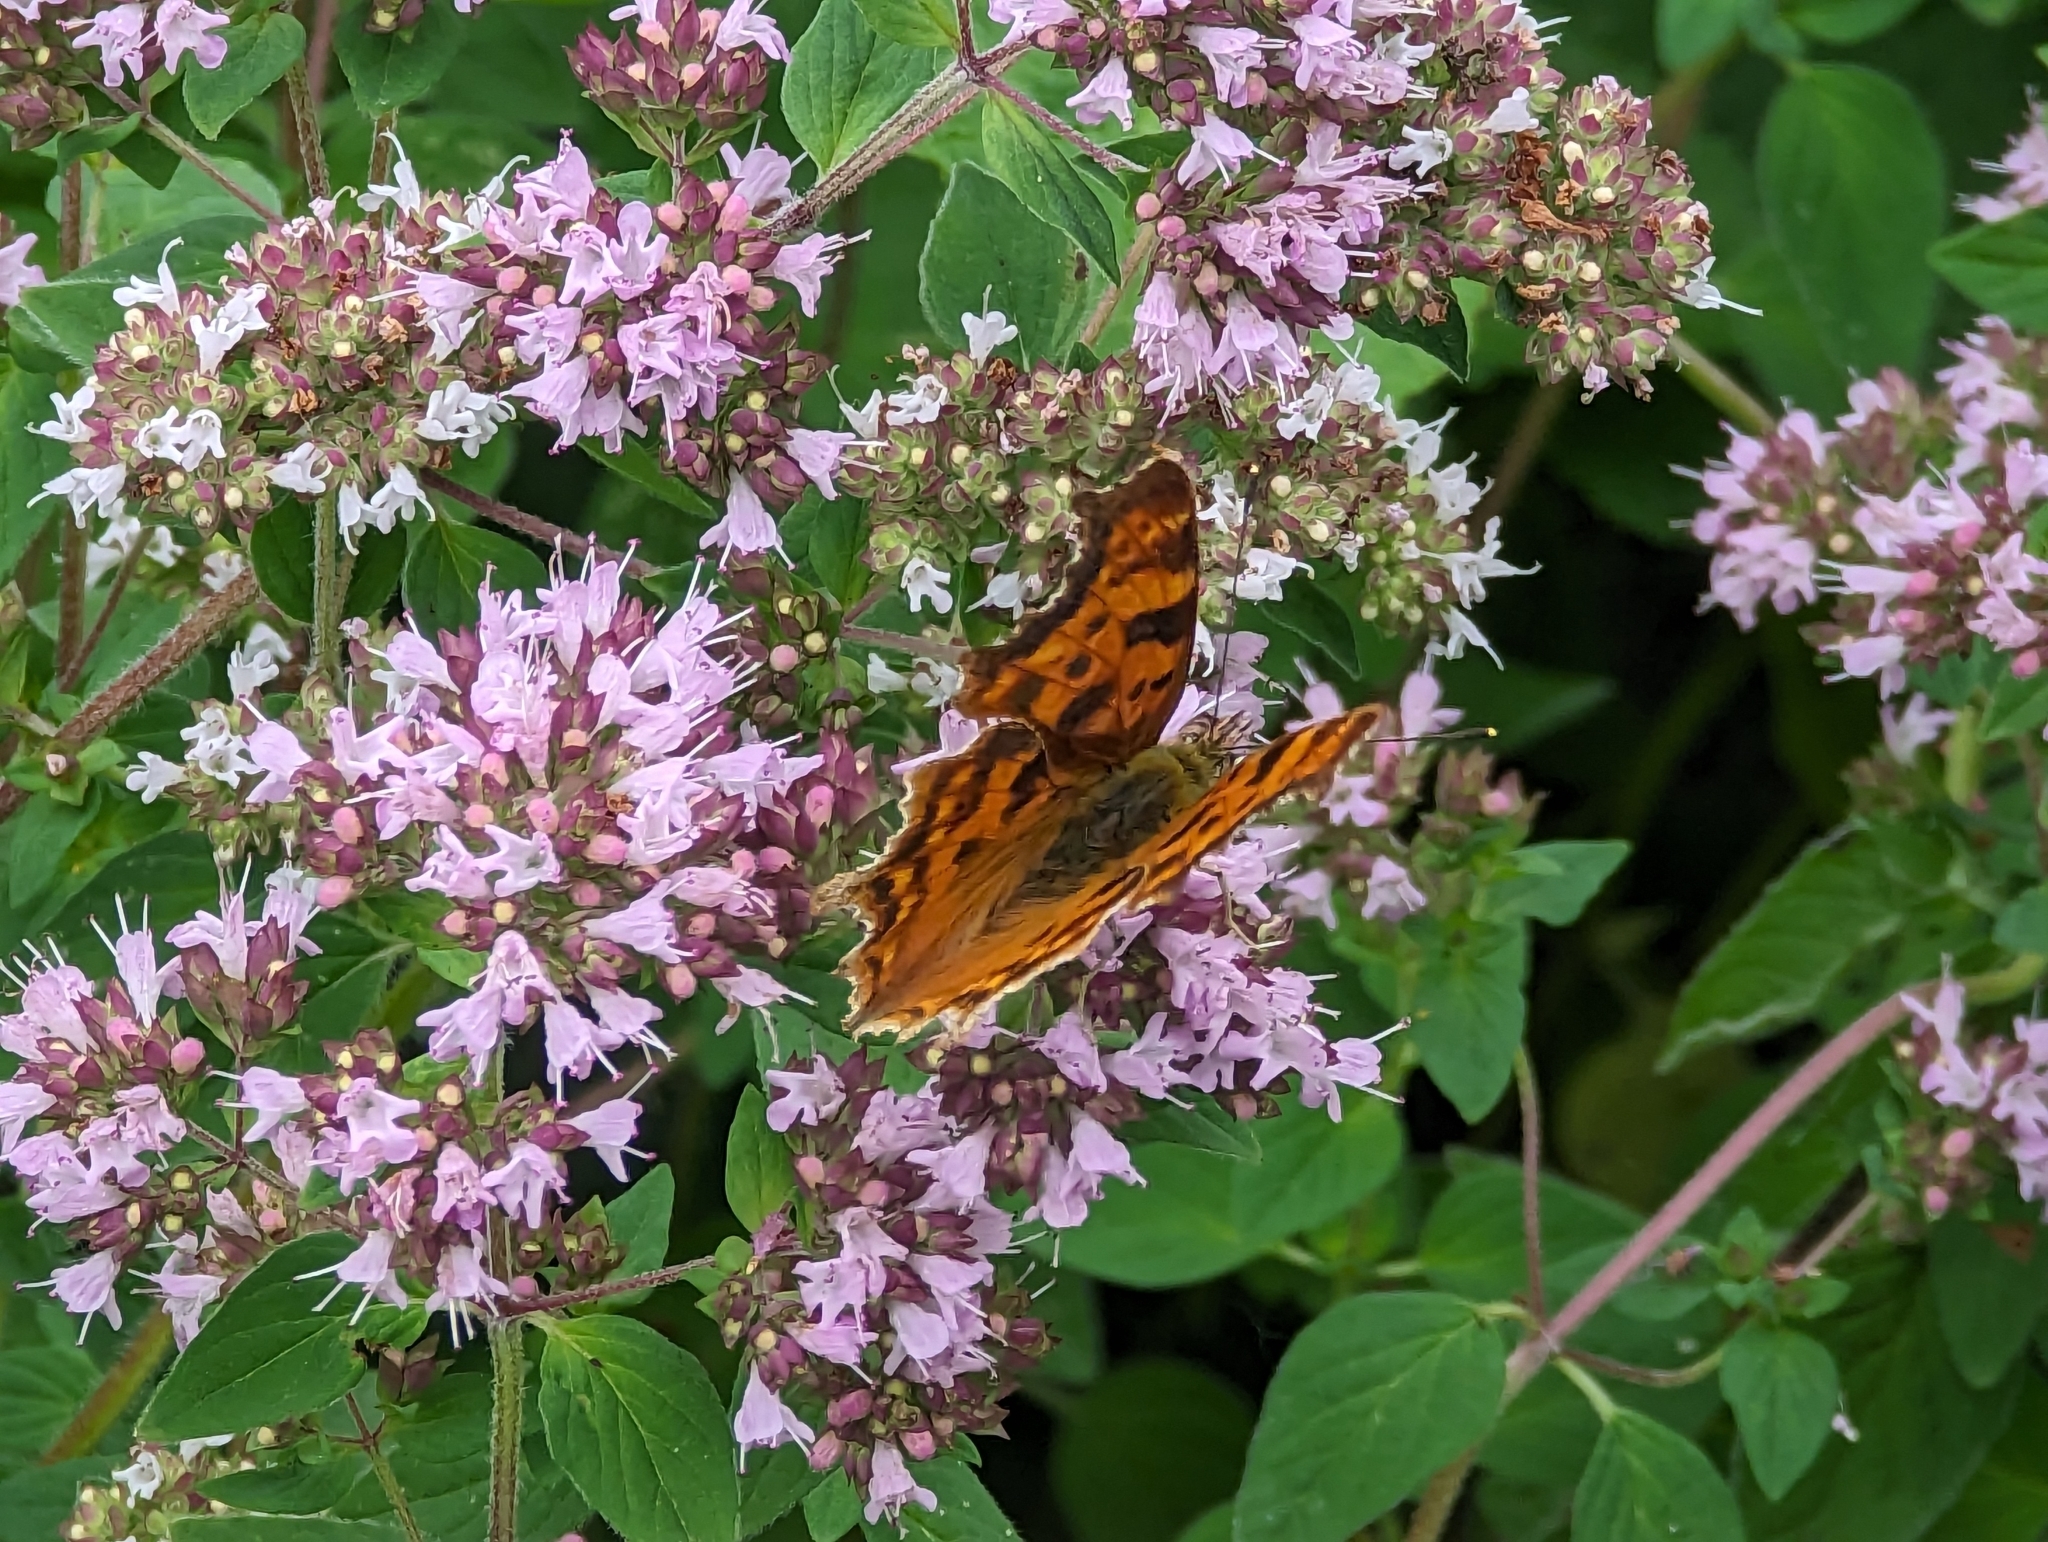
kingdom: Animalia
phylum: Arthropoda
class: Insecta
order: Lepidoptera
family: Nymphalidae
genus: Polygonia
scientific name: Polygonia c-album
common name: Comma
